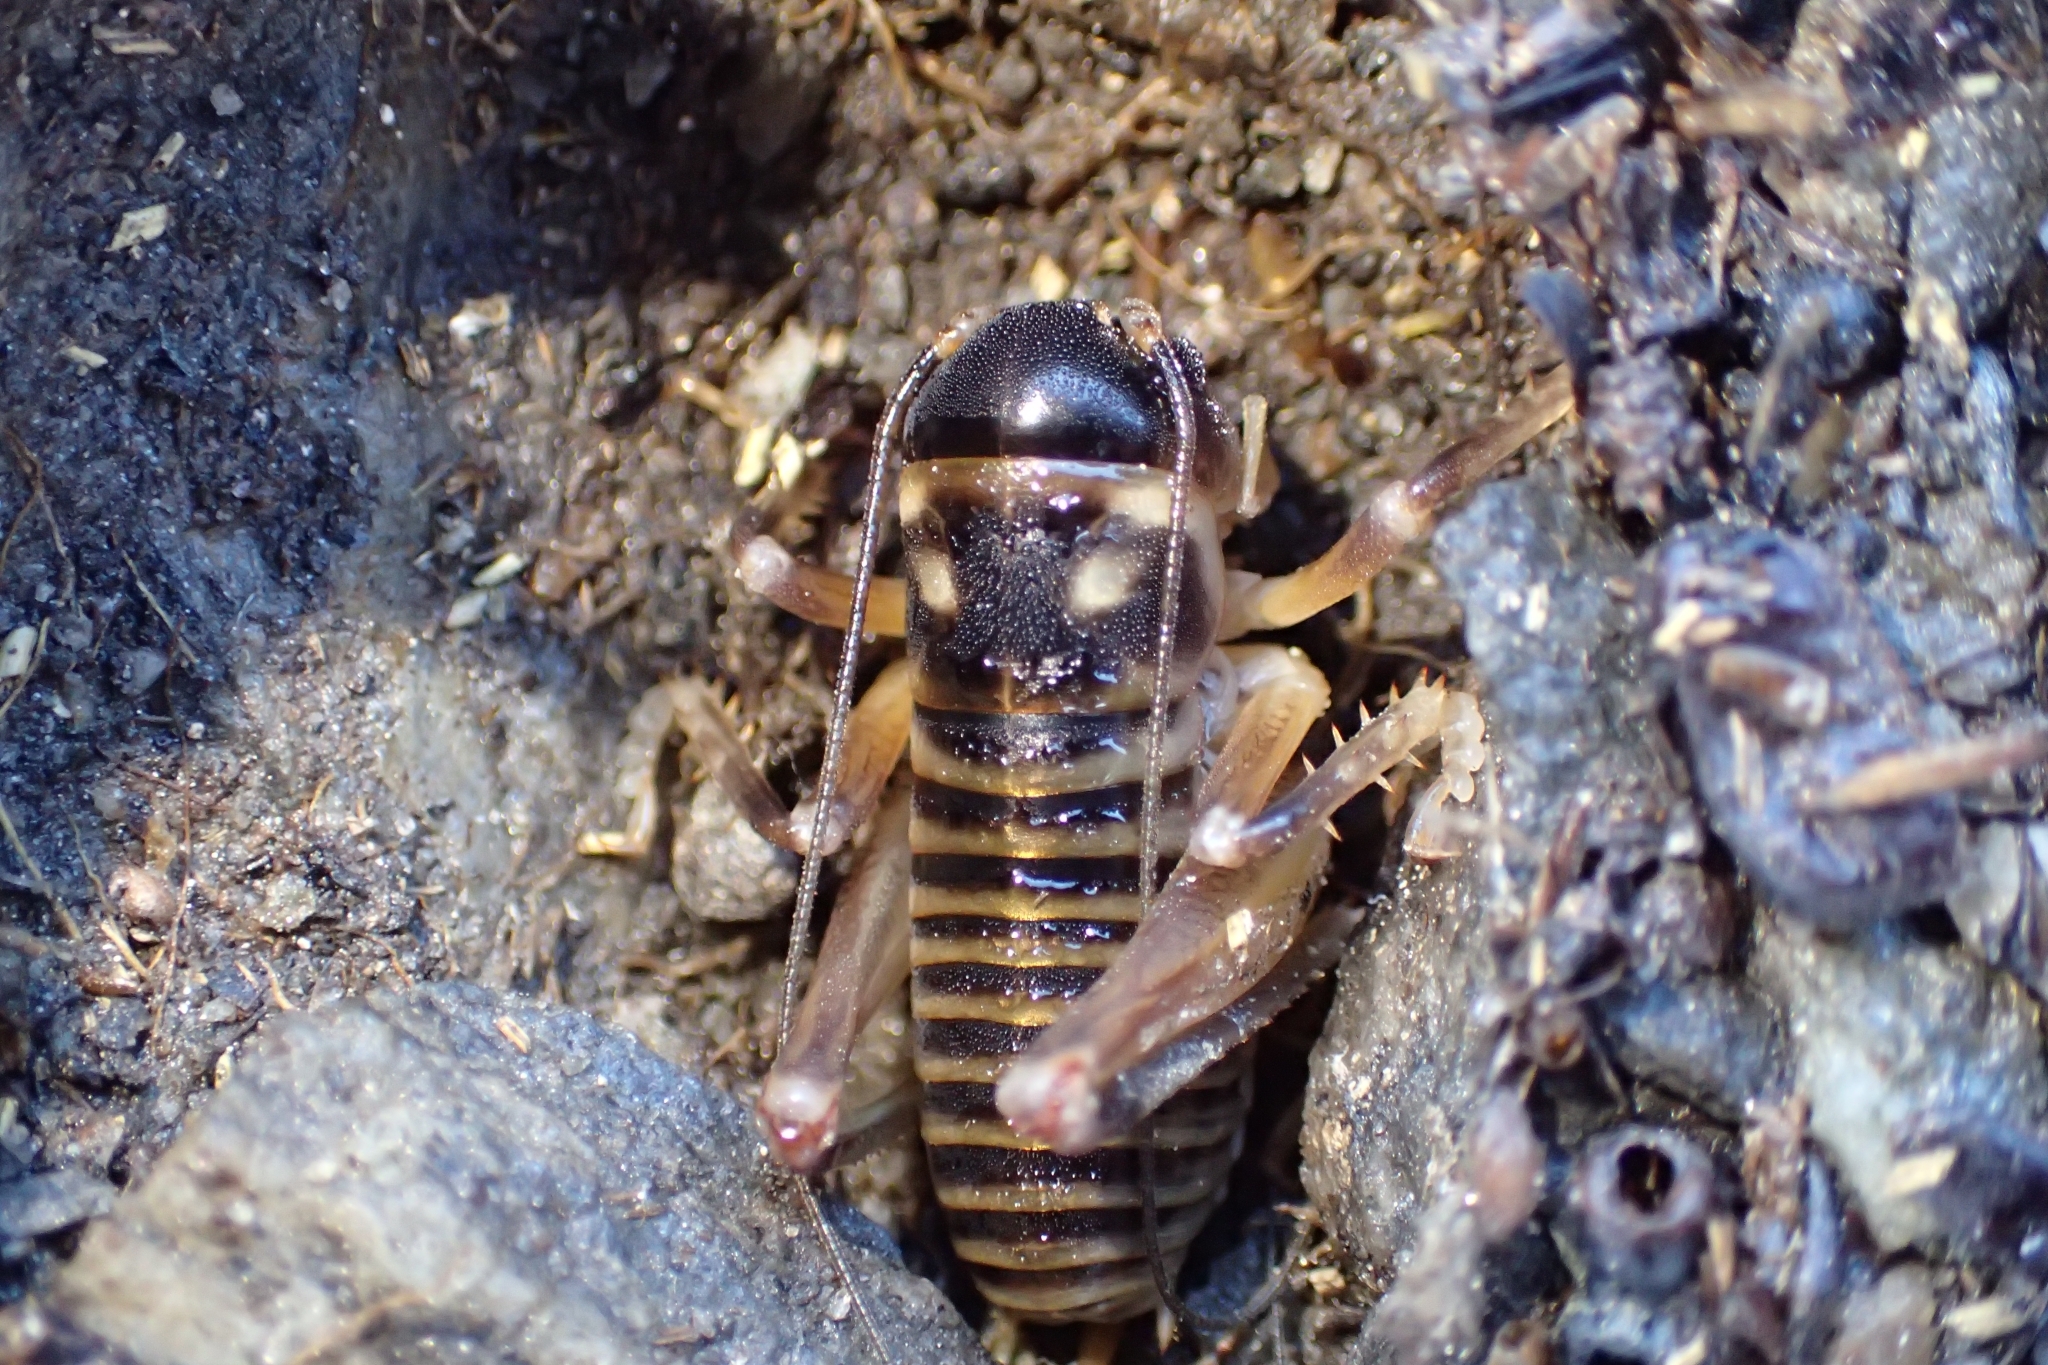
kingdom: Animalia
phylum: Arthropoda
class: Insecta
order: Orthoptera
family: Anostostomatidae
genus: Hemiandrus
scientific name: Hemiandrus focalis
